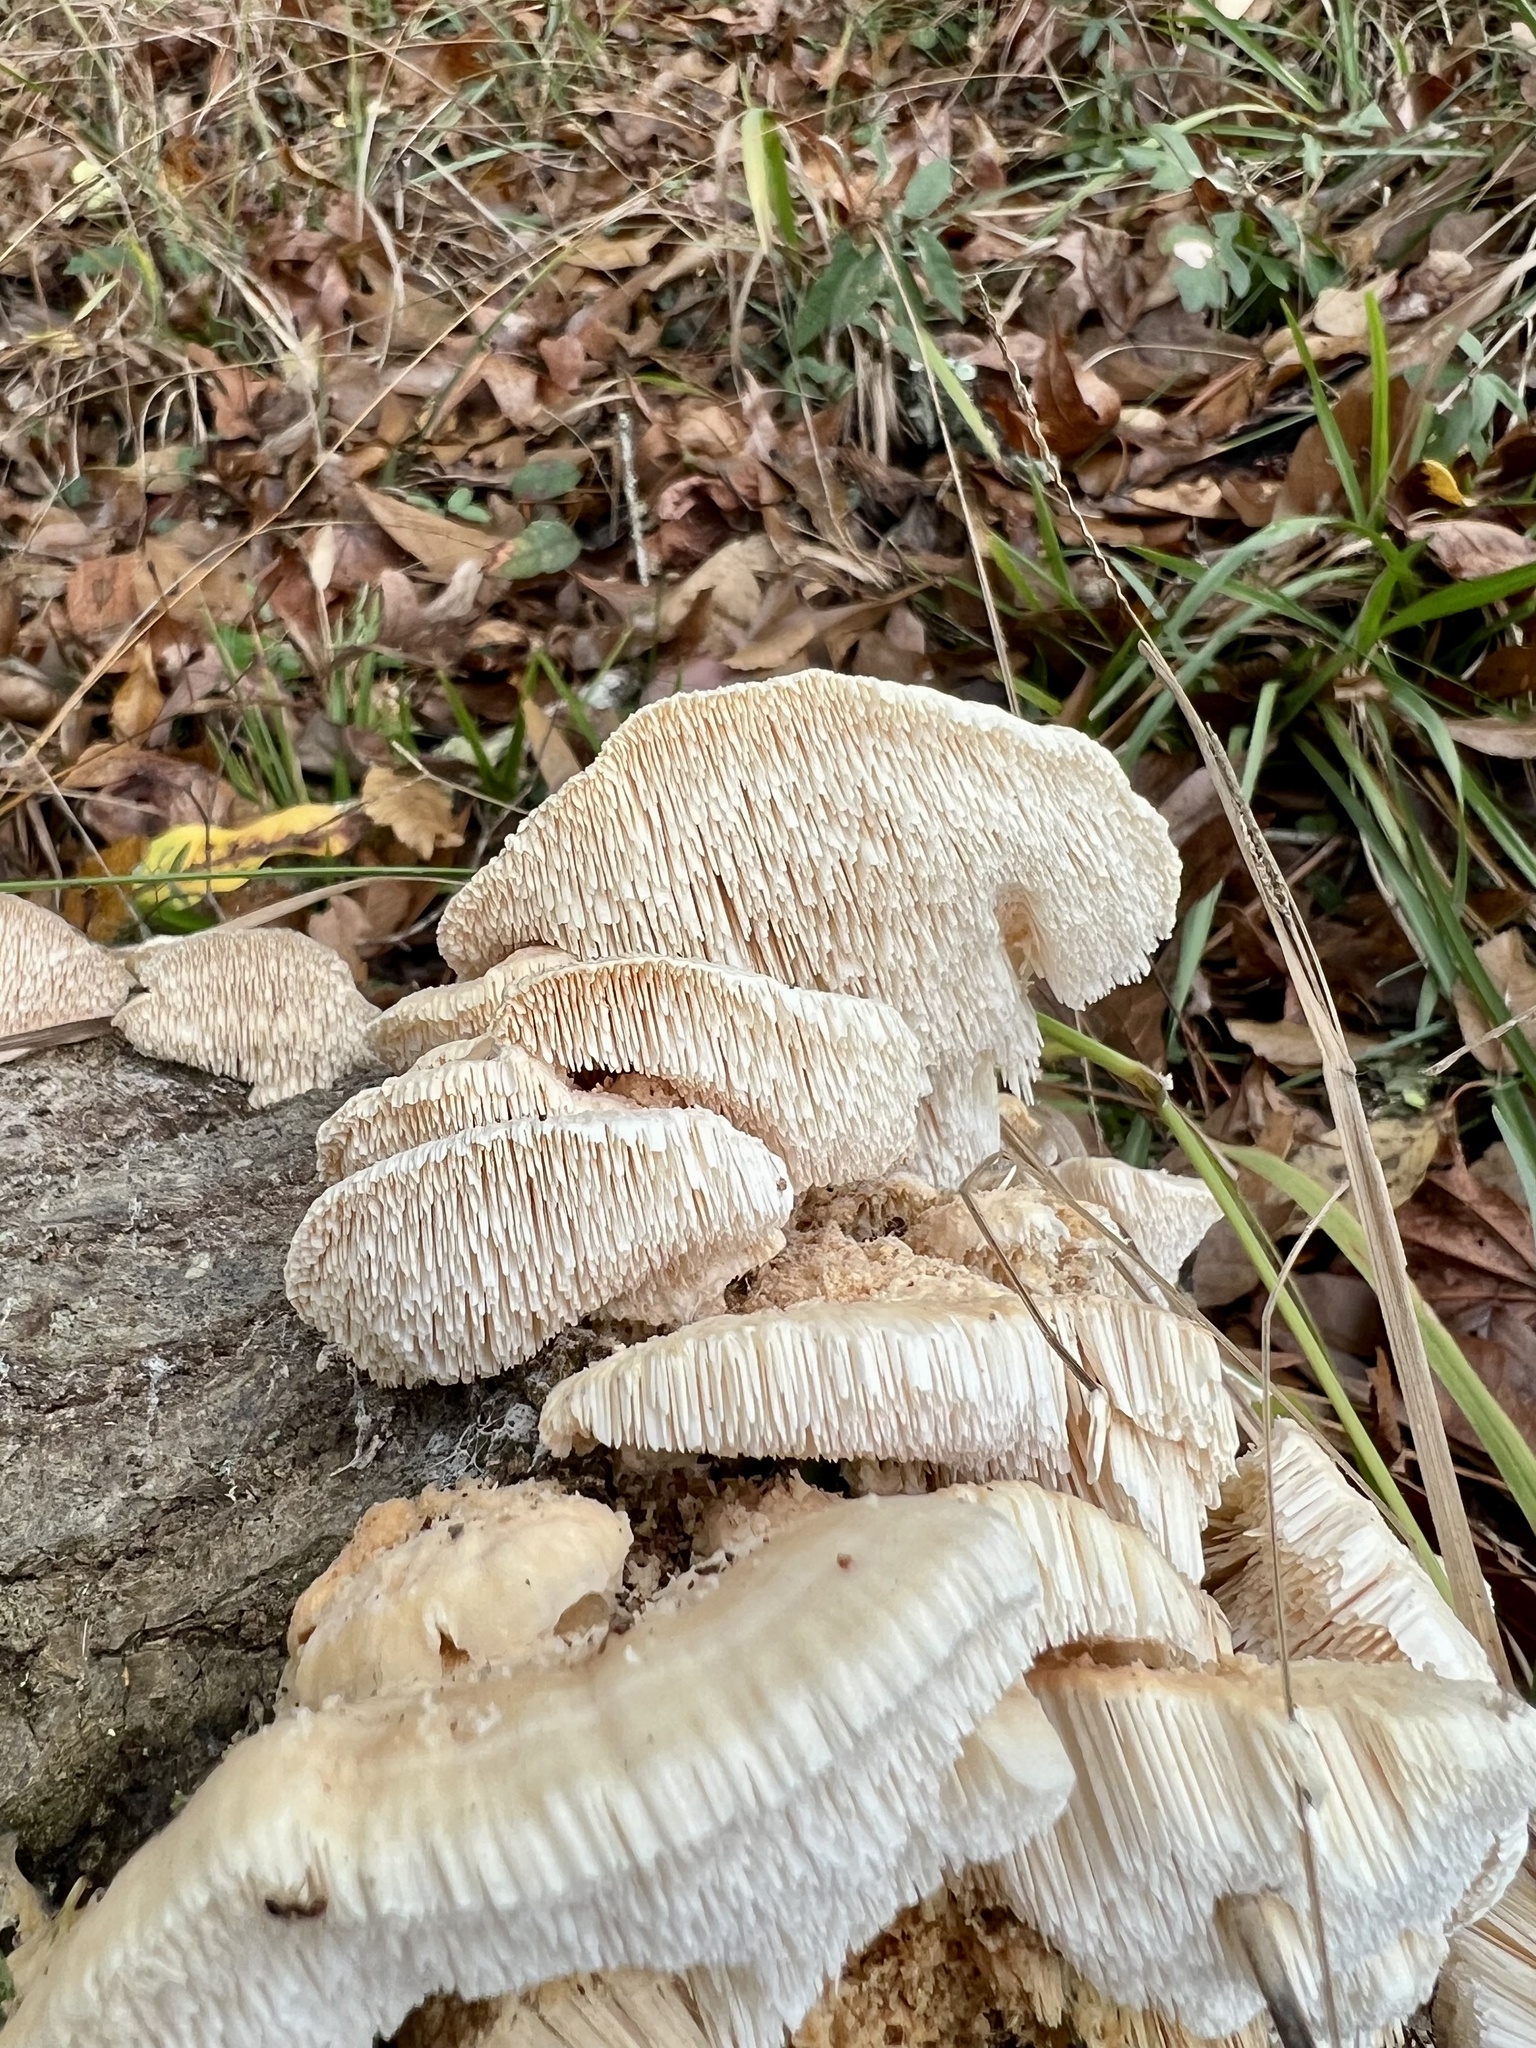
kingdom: Fungi
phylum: Basidiomycota
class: Agaricomycetes
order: Polyporales
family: Meruliaceae
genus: Irpiciporus
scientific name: Irpiciporus pachyodon
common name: Marshmallow polypore
